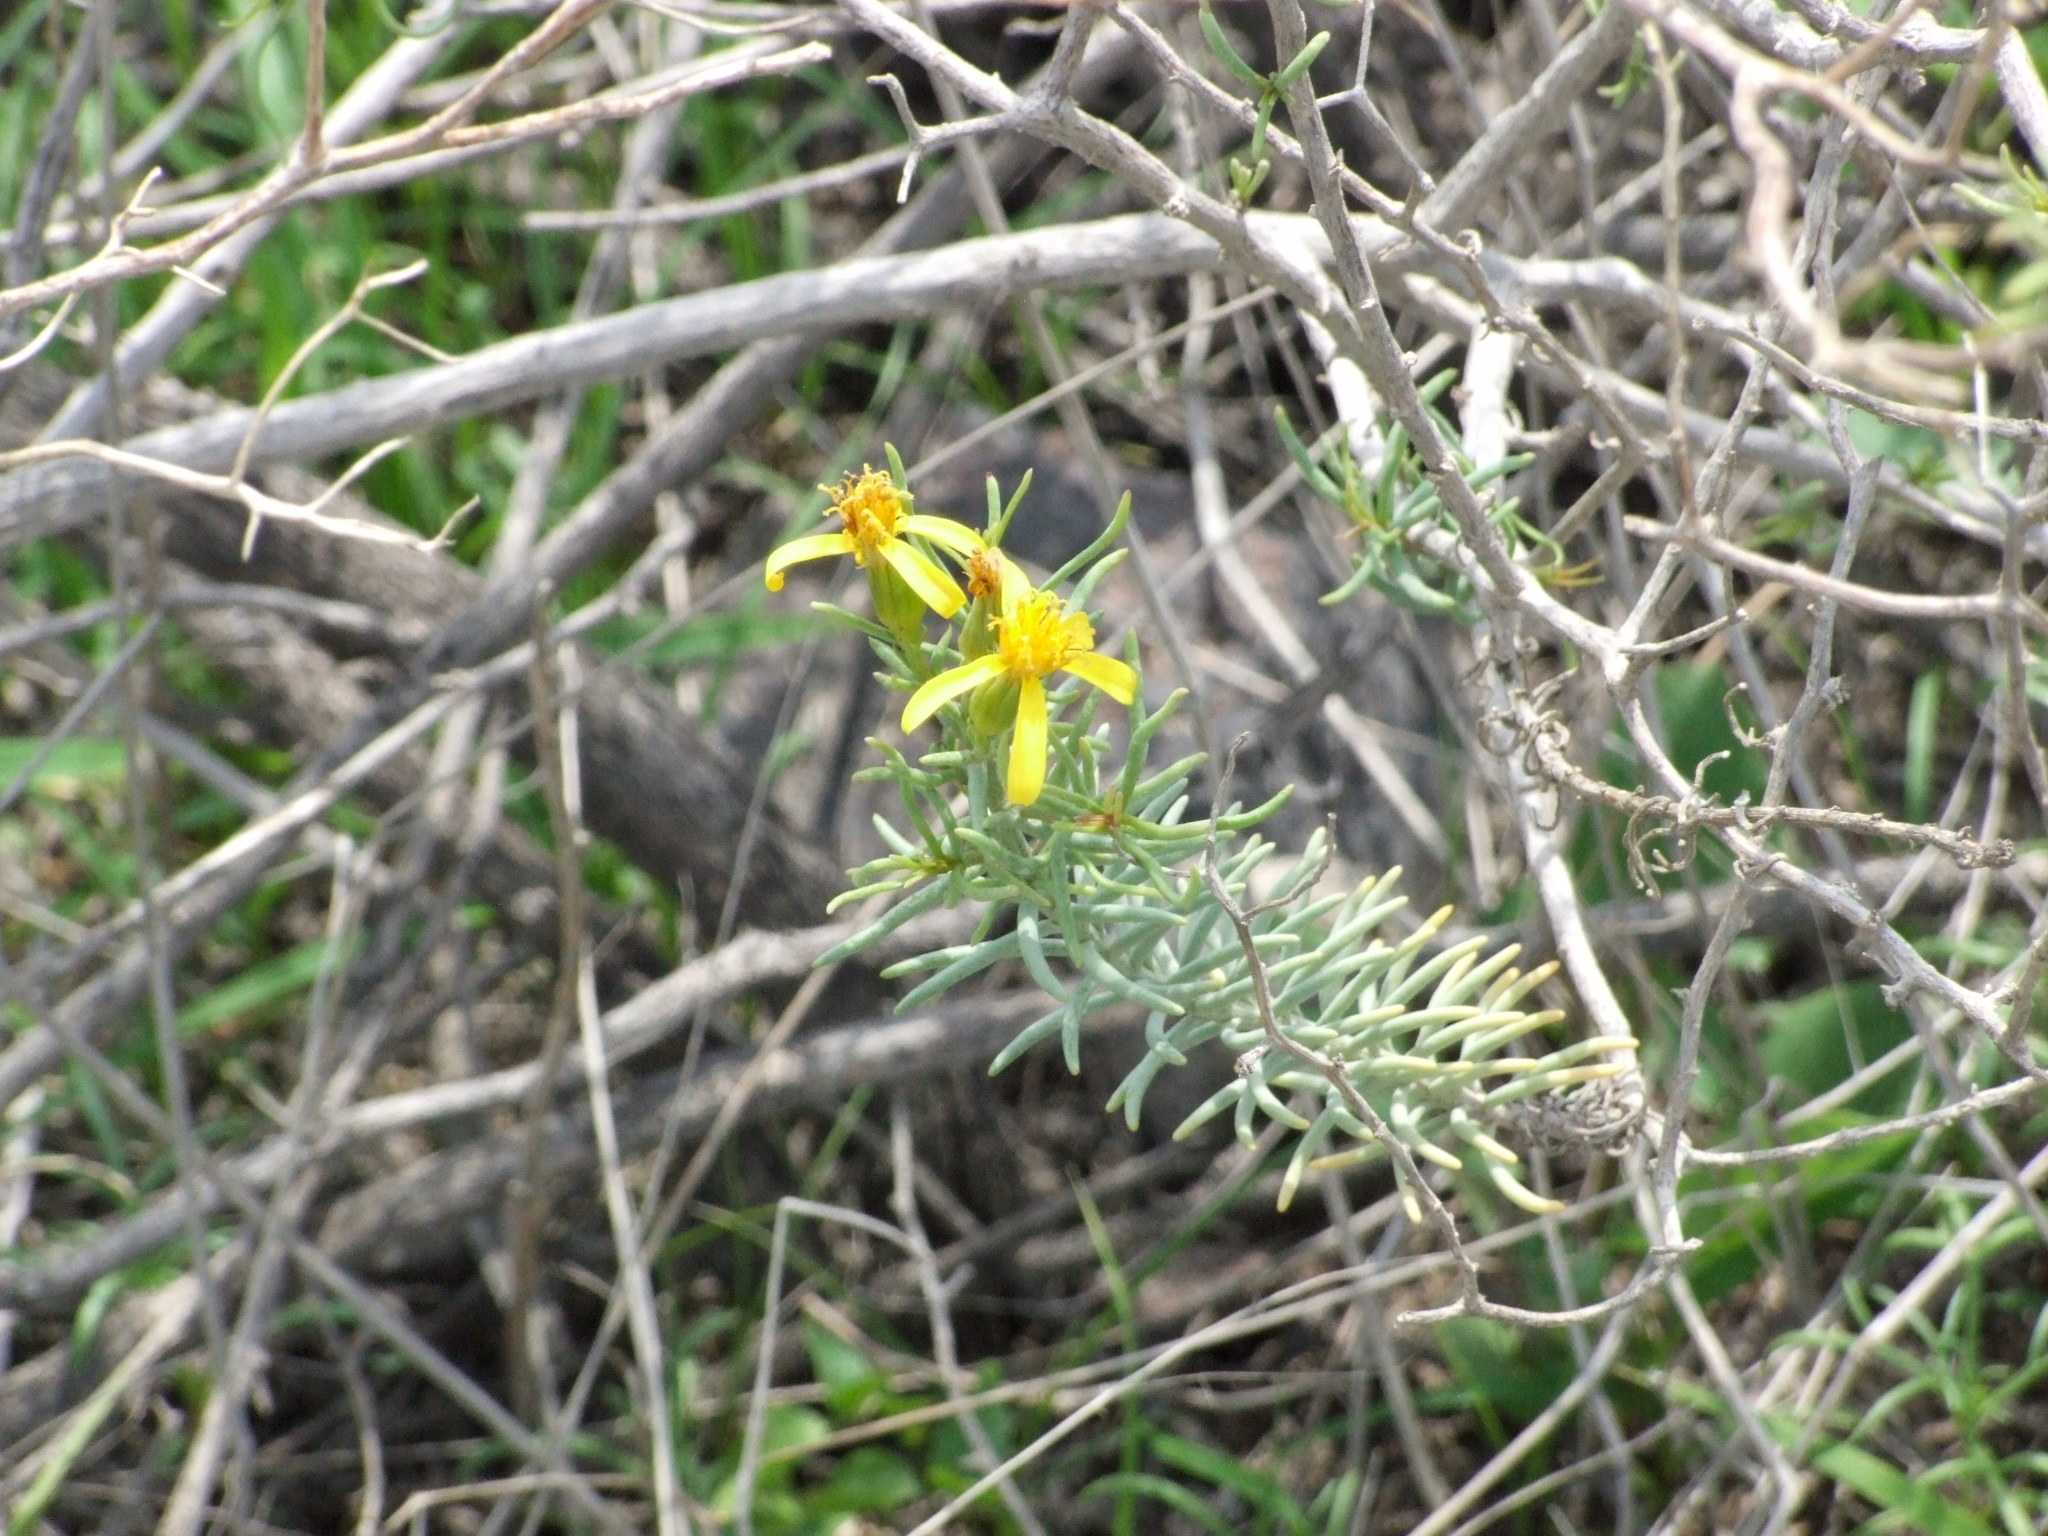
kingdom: Plantae
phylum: Tracheophyta
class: Magnoliopsida
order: Asterales
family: Asteraceae
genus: Senecio
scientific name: Senecio yurensis
